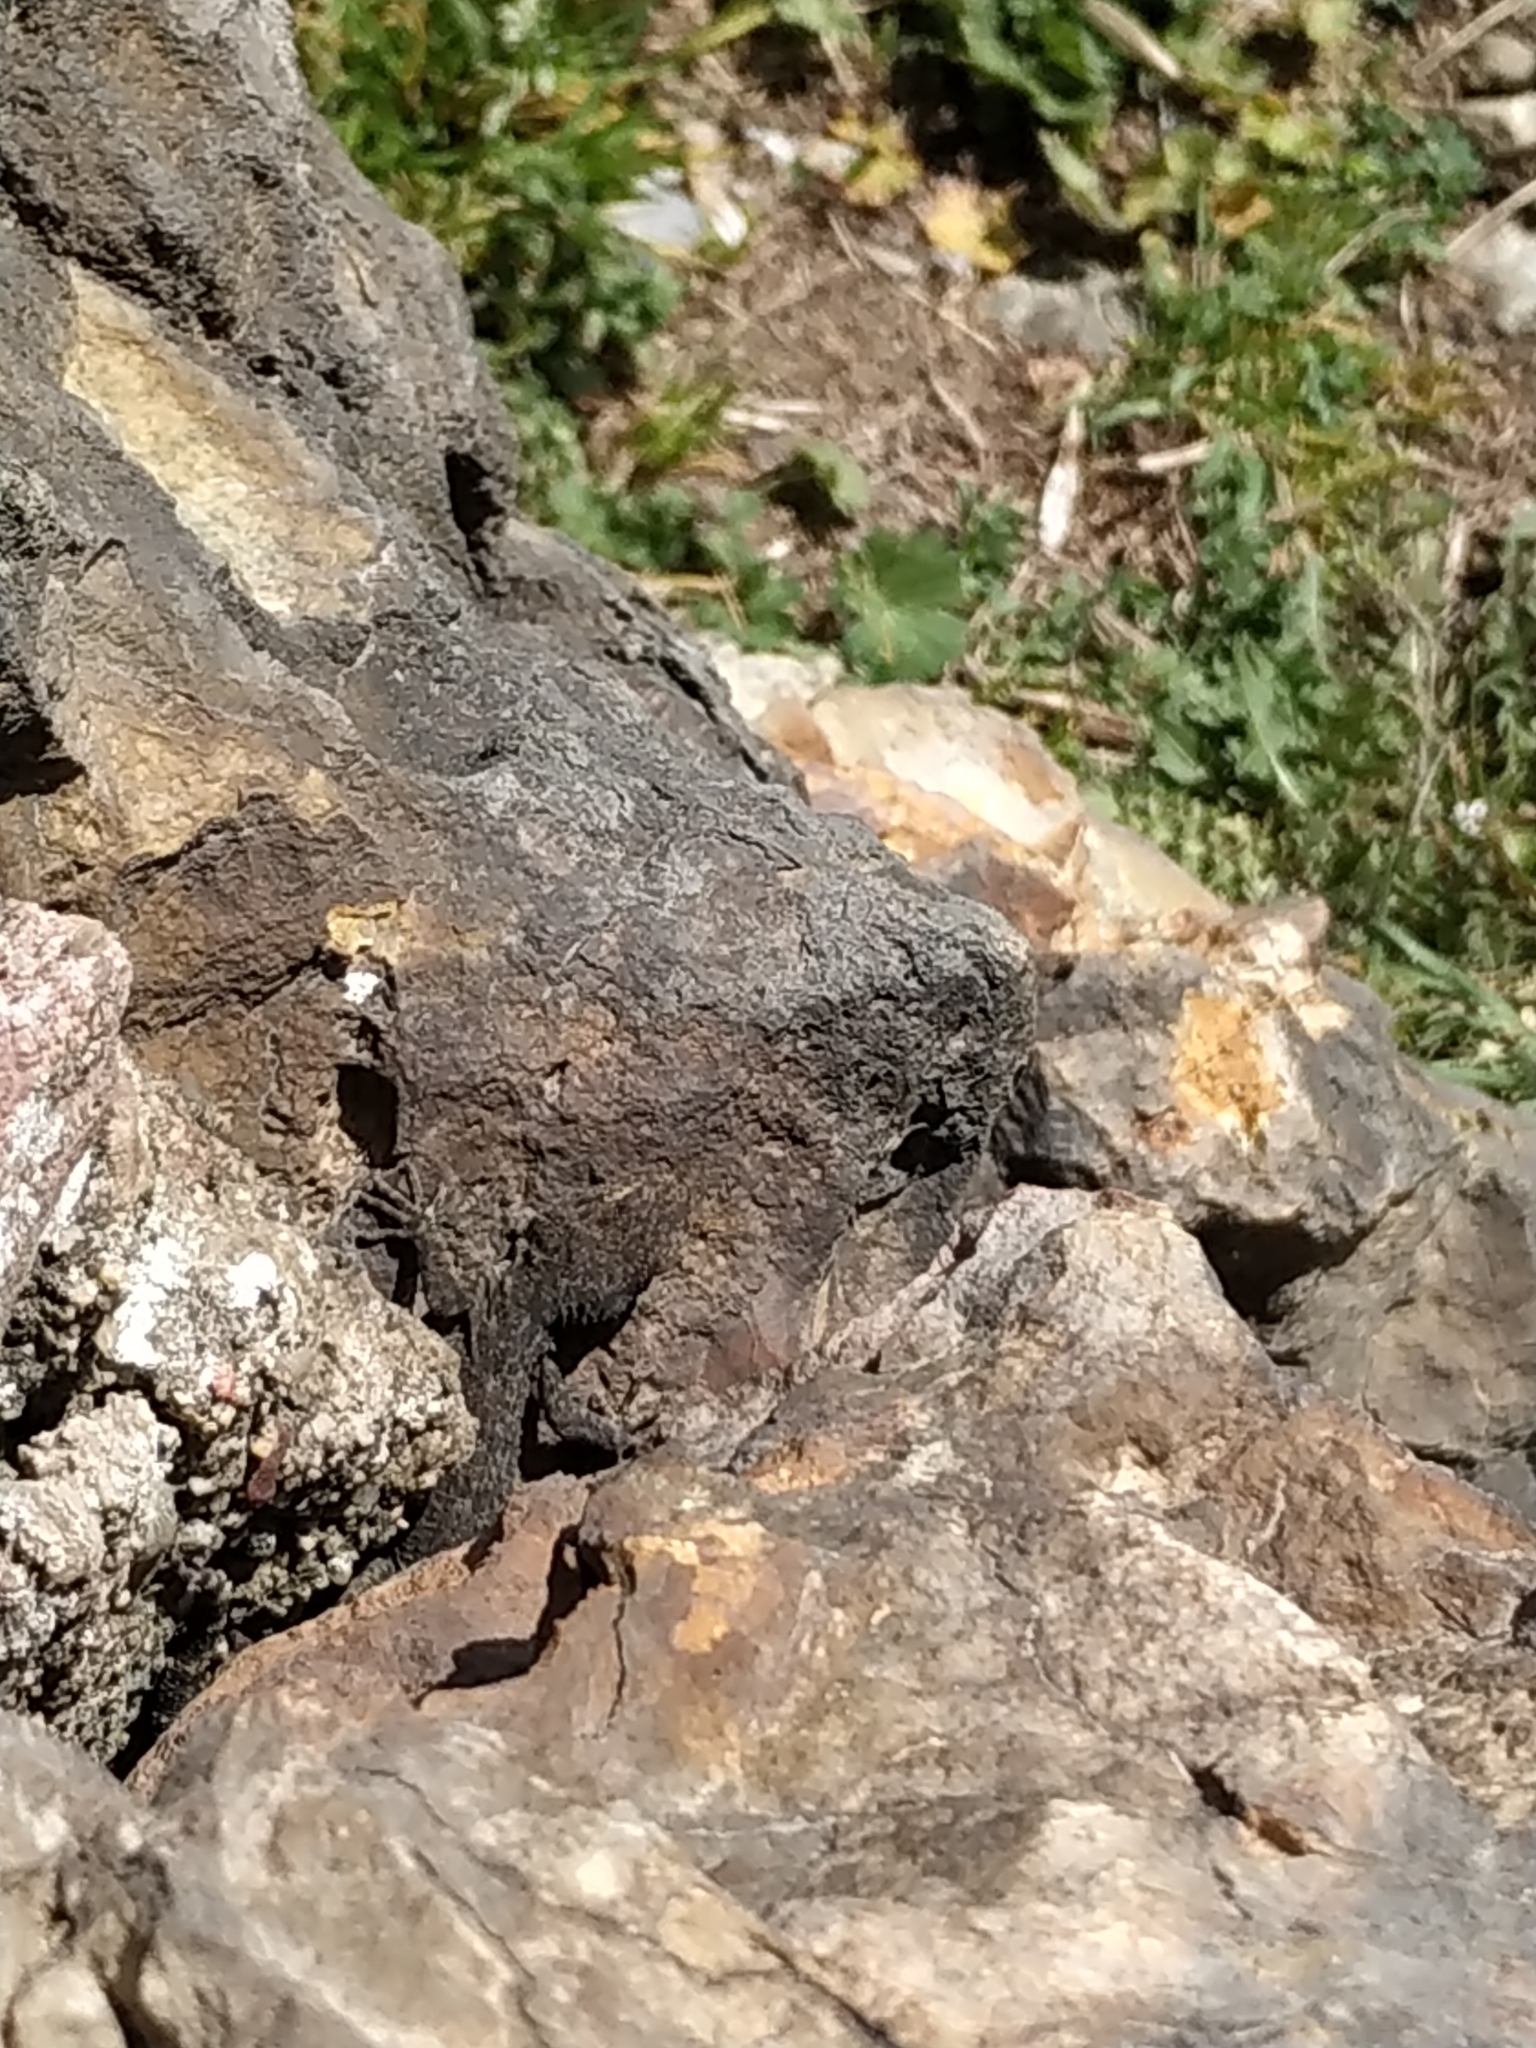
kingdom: Animalia
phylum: Chordata
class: Squamata
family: Gekkonidae
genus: Mediodactylus
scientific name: Mediodactylus kotschyi
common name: Kotschy's gecko
